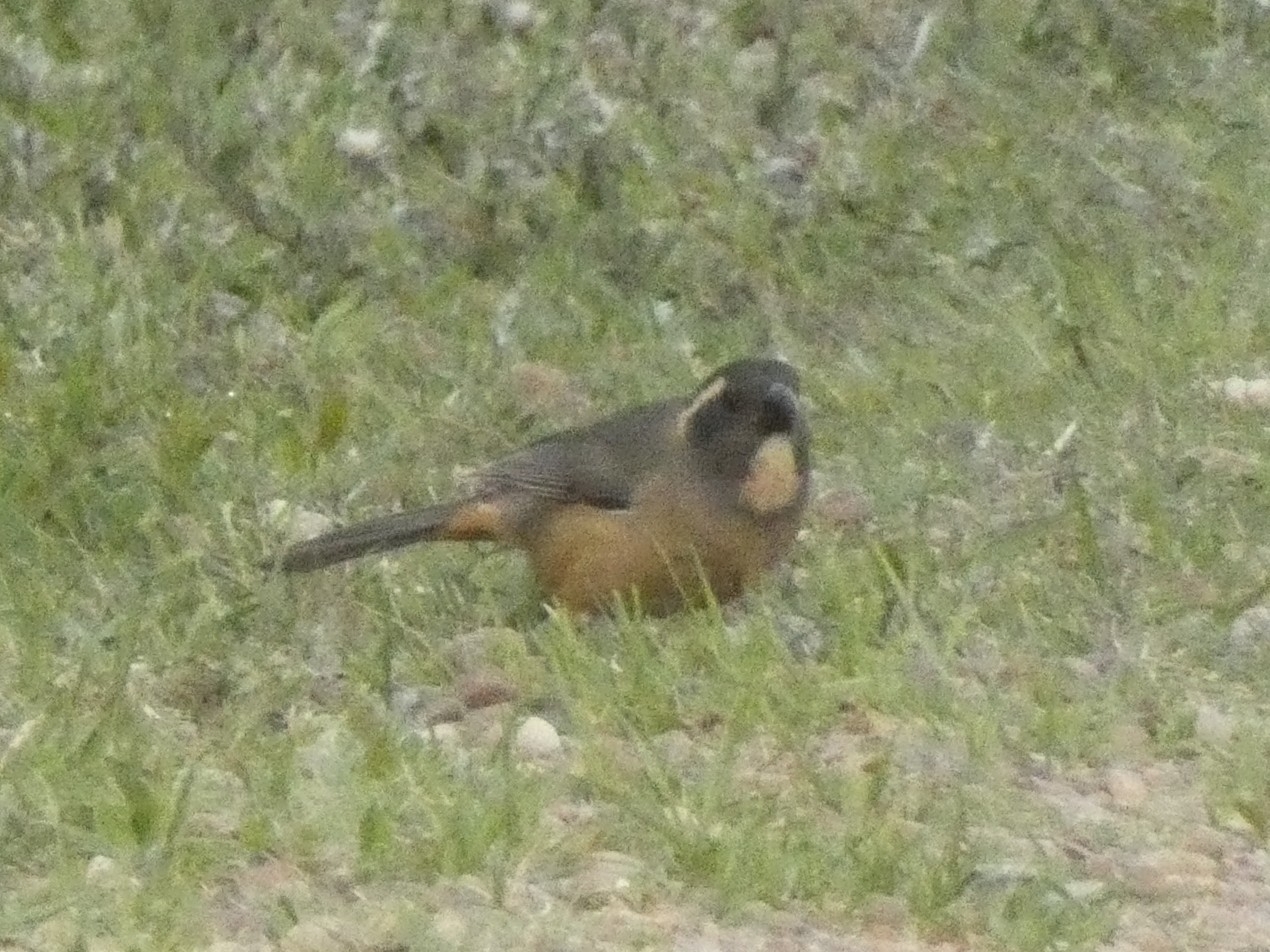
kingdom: Animalia
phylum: Chordata
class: Aves
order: Passeriformes
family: Thraupidae
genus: Saltator
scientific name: Saltator aurantiirostris
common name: Golden-billed saltator
